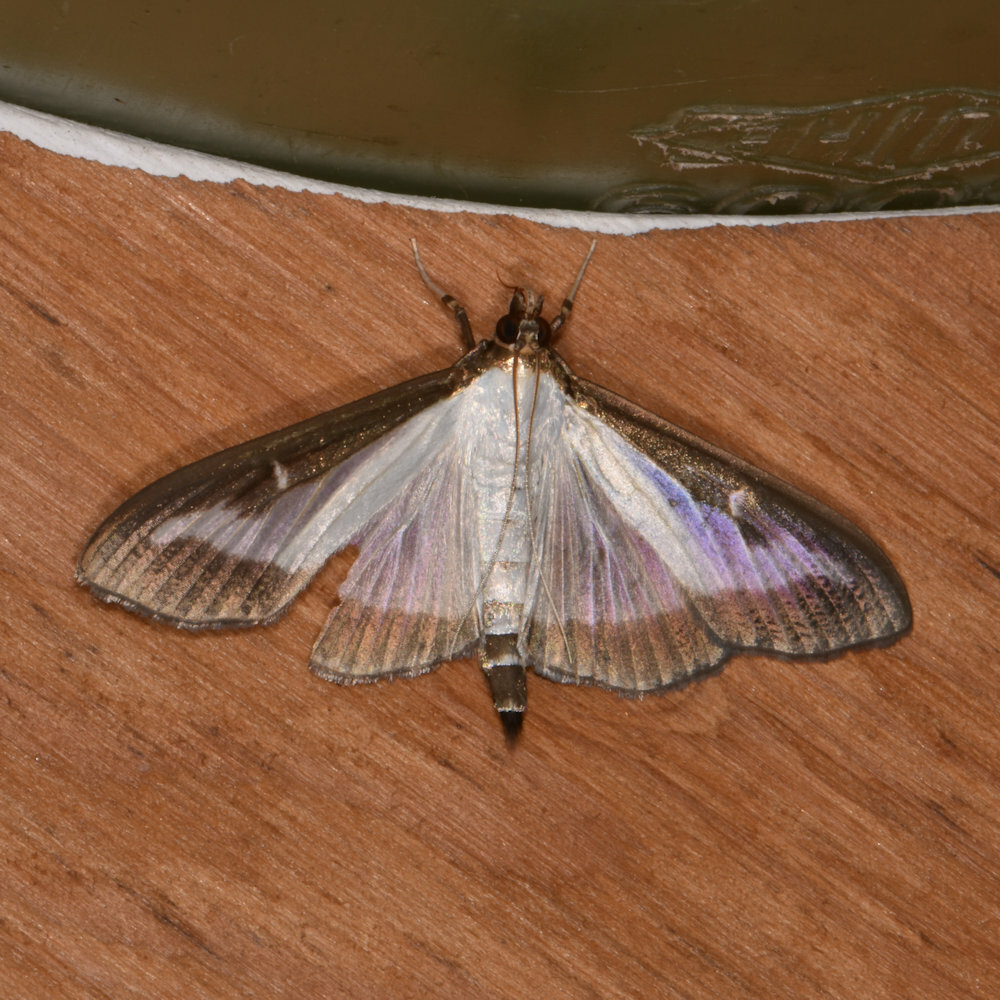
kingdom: Animalia
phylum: Arthropoda
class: Insecta
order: Lepidoptera
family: Crambidae
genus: Cydalima
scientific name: Cydalima perspectalis
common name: Box tree moth
